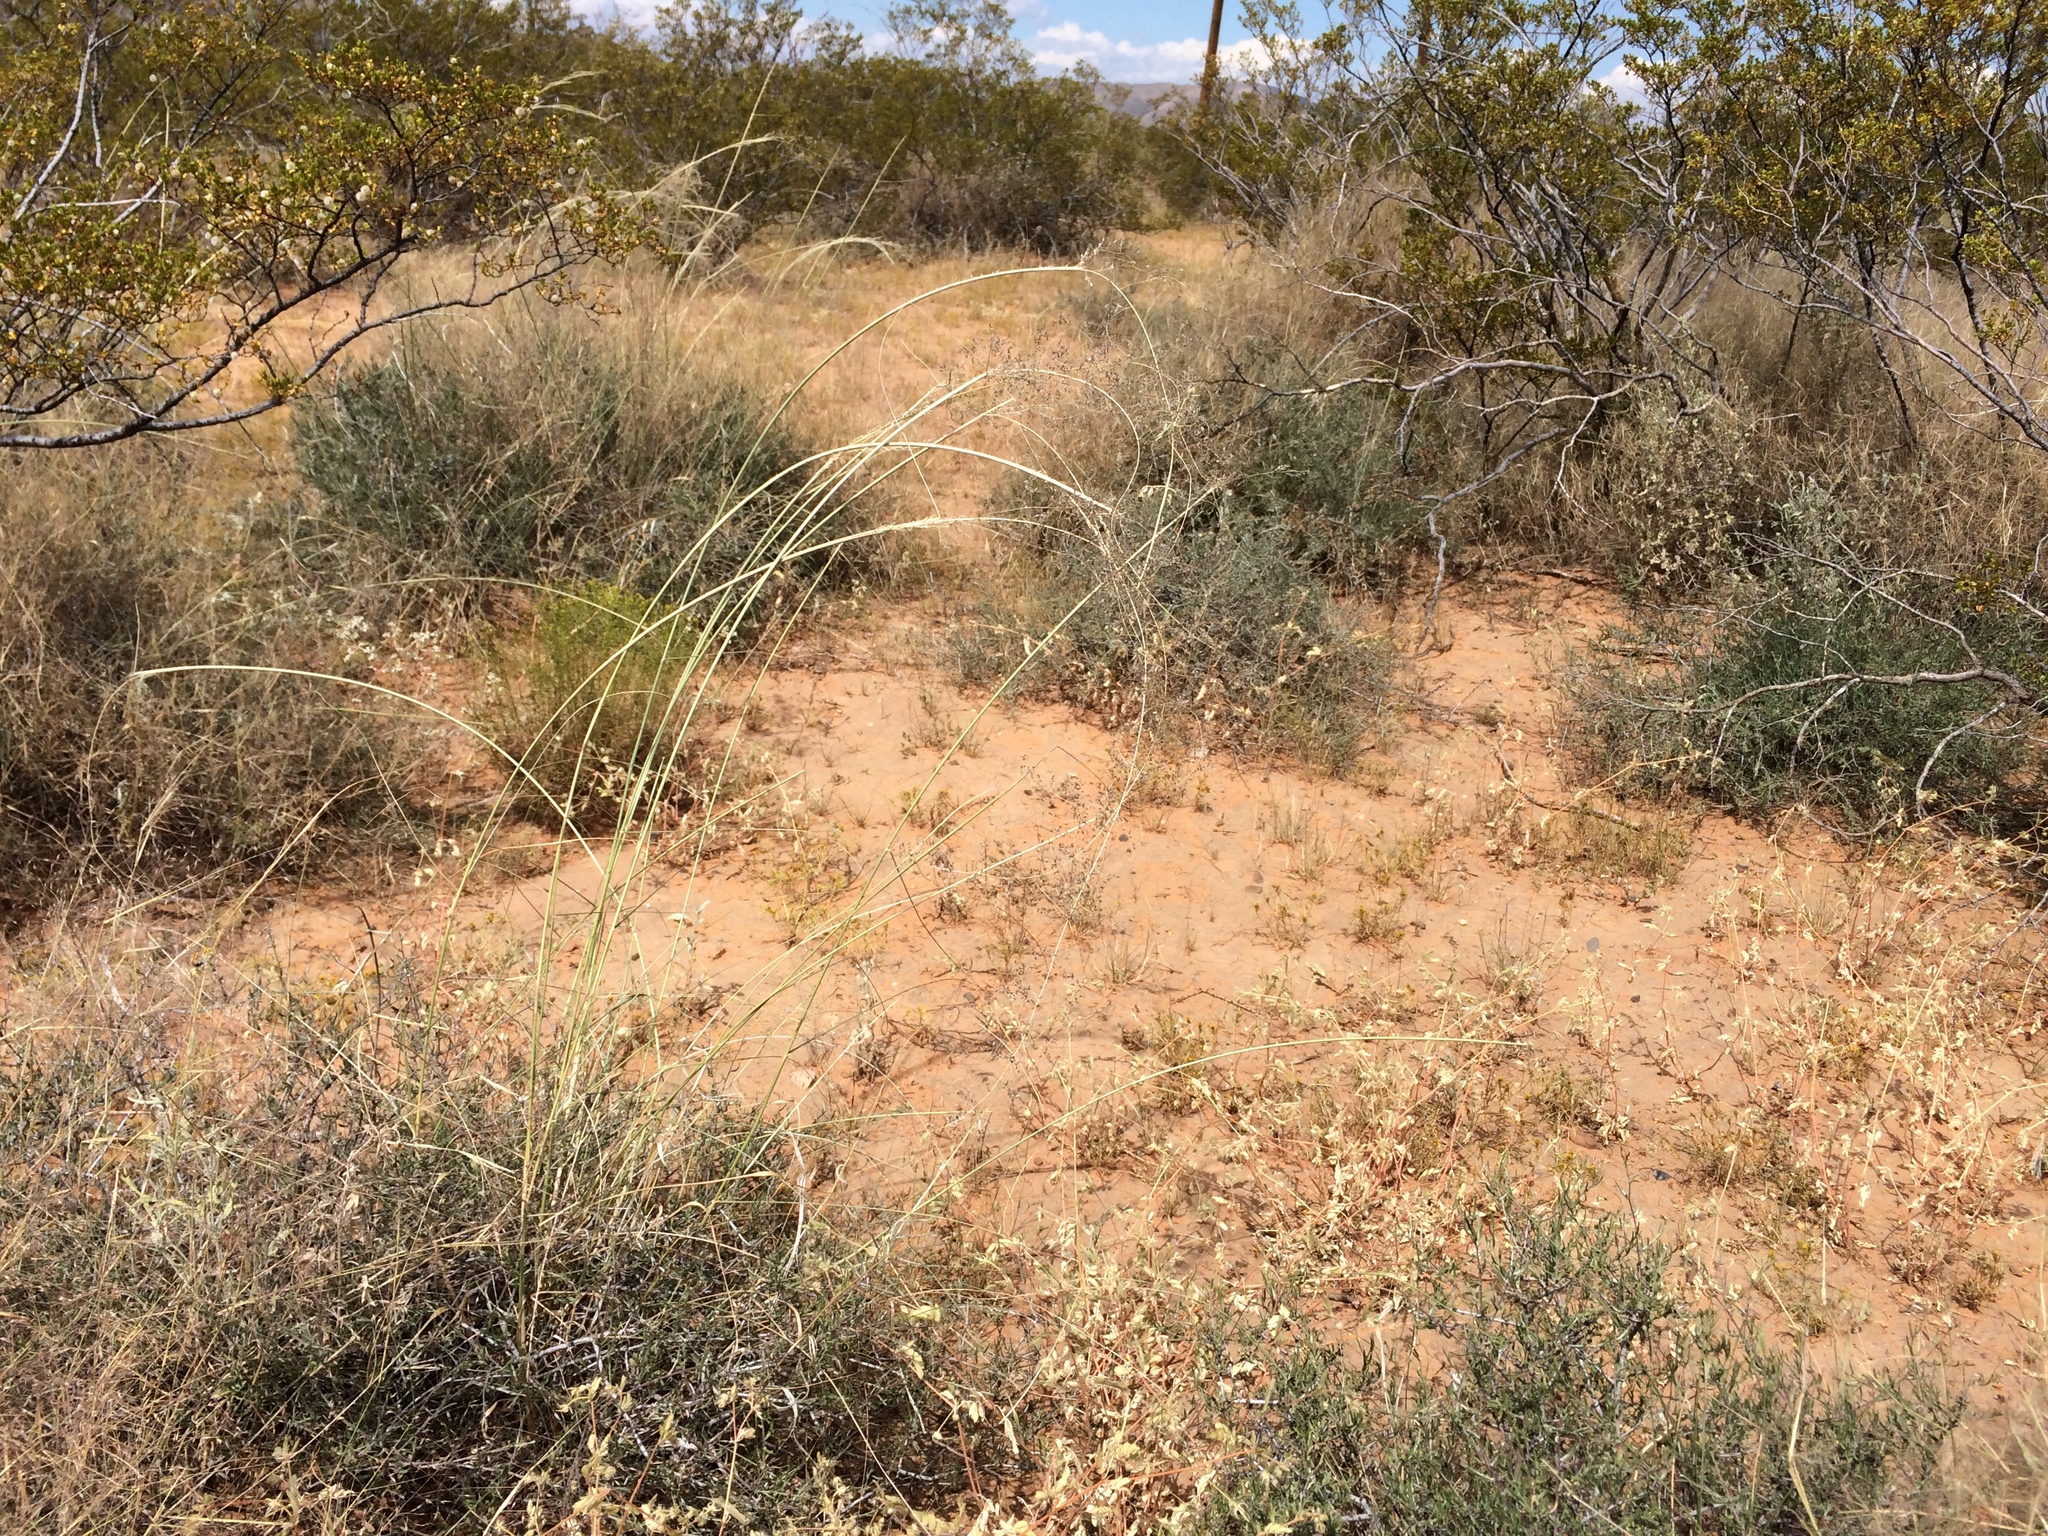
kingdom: Plantae
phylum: Tracheophyta
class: Liliopsida
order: Poales
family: Poaceae
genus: Sporobolus
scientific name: Sporobolus flexuosus
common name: Mesa dropseed
